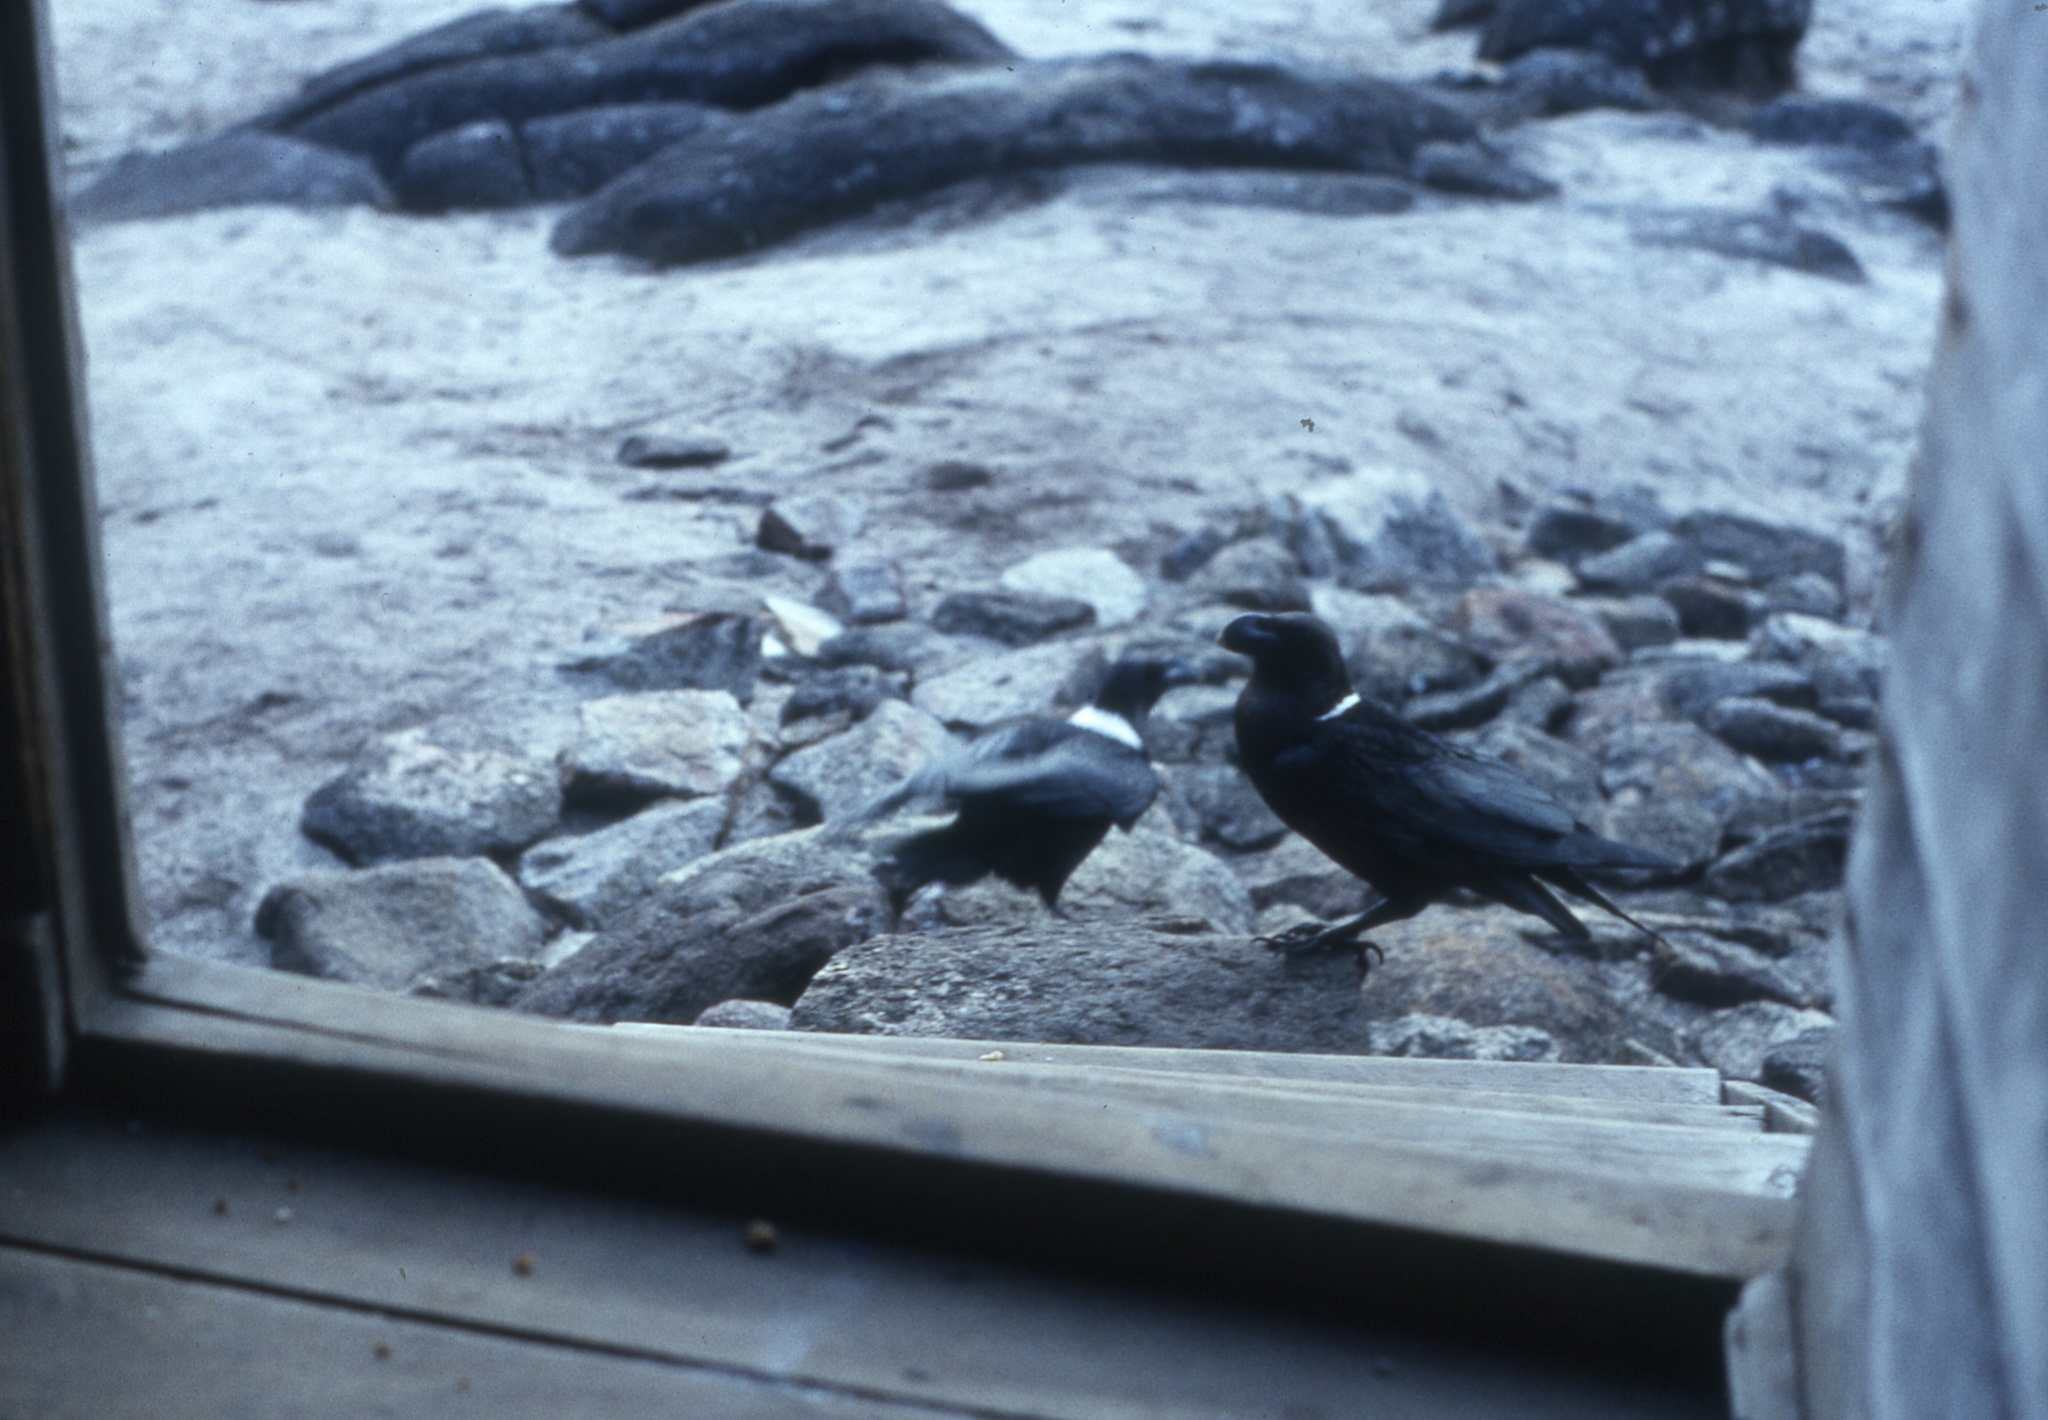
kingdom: Animalia
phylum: Chordata
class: Aves
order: Passeriformes
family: Corvidae
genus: Corvus
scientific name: Corvus albicollis
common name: White-necked raven
